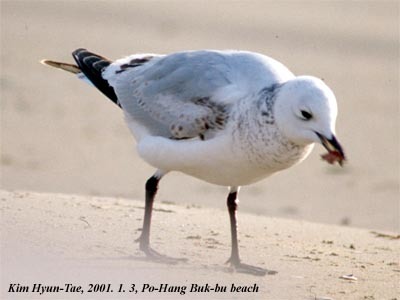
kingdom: Animalia
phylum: Chordata
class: Aves
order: Charadriiformes
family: Laridae
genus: Ichthyaetus
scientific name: Ichthyaetus relictus
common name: Relict gull
